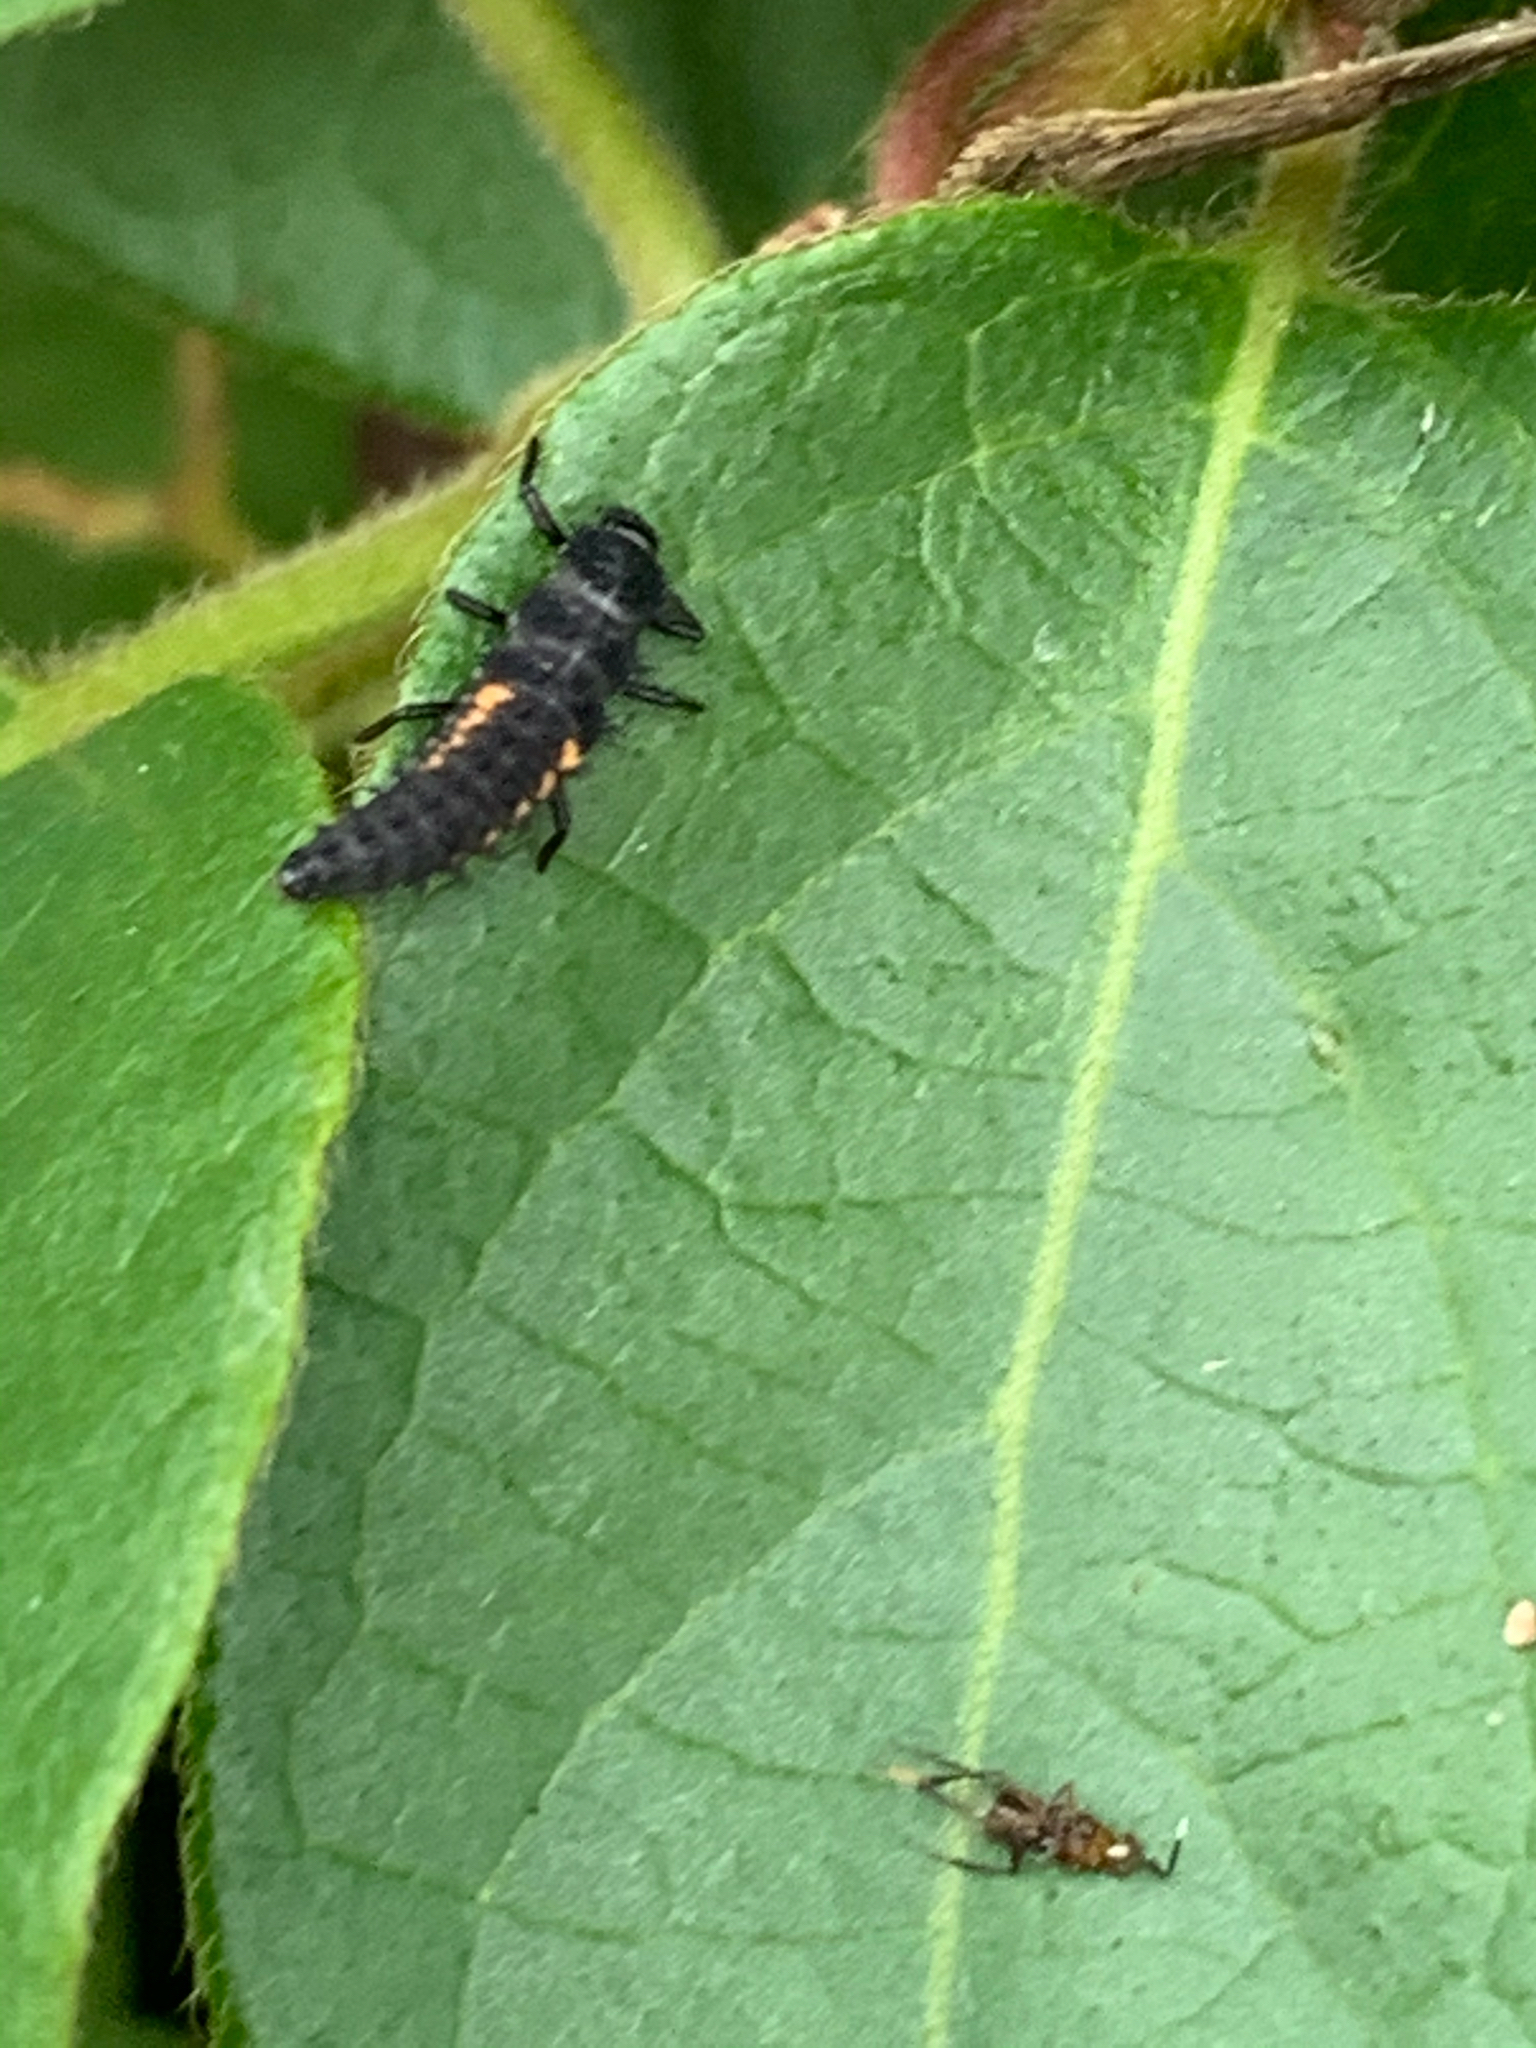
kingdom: Animalia
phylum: Arthropoda
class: Insecta
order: Coleoptera
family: Coccinellidae
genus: Harmonia
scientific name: Harmonia axyridis
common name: Harlequin ladybird
